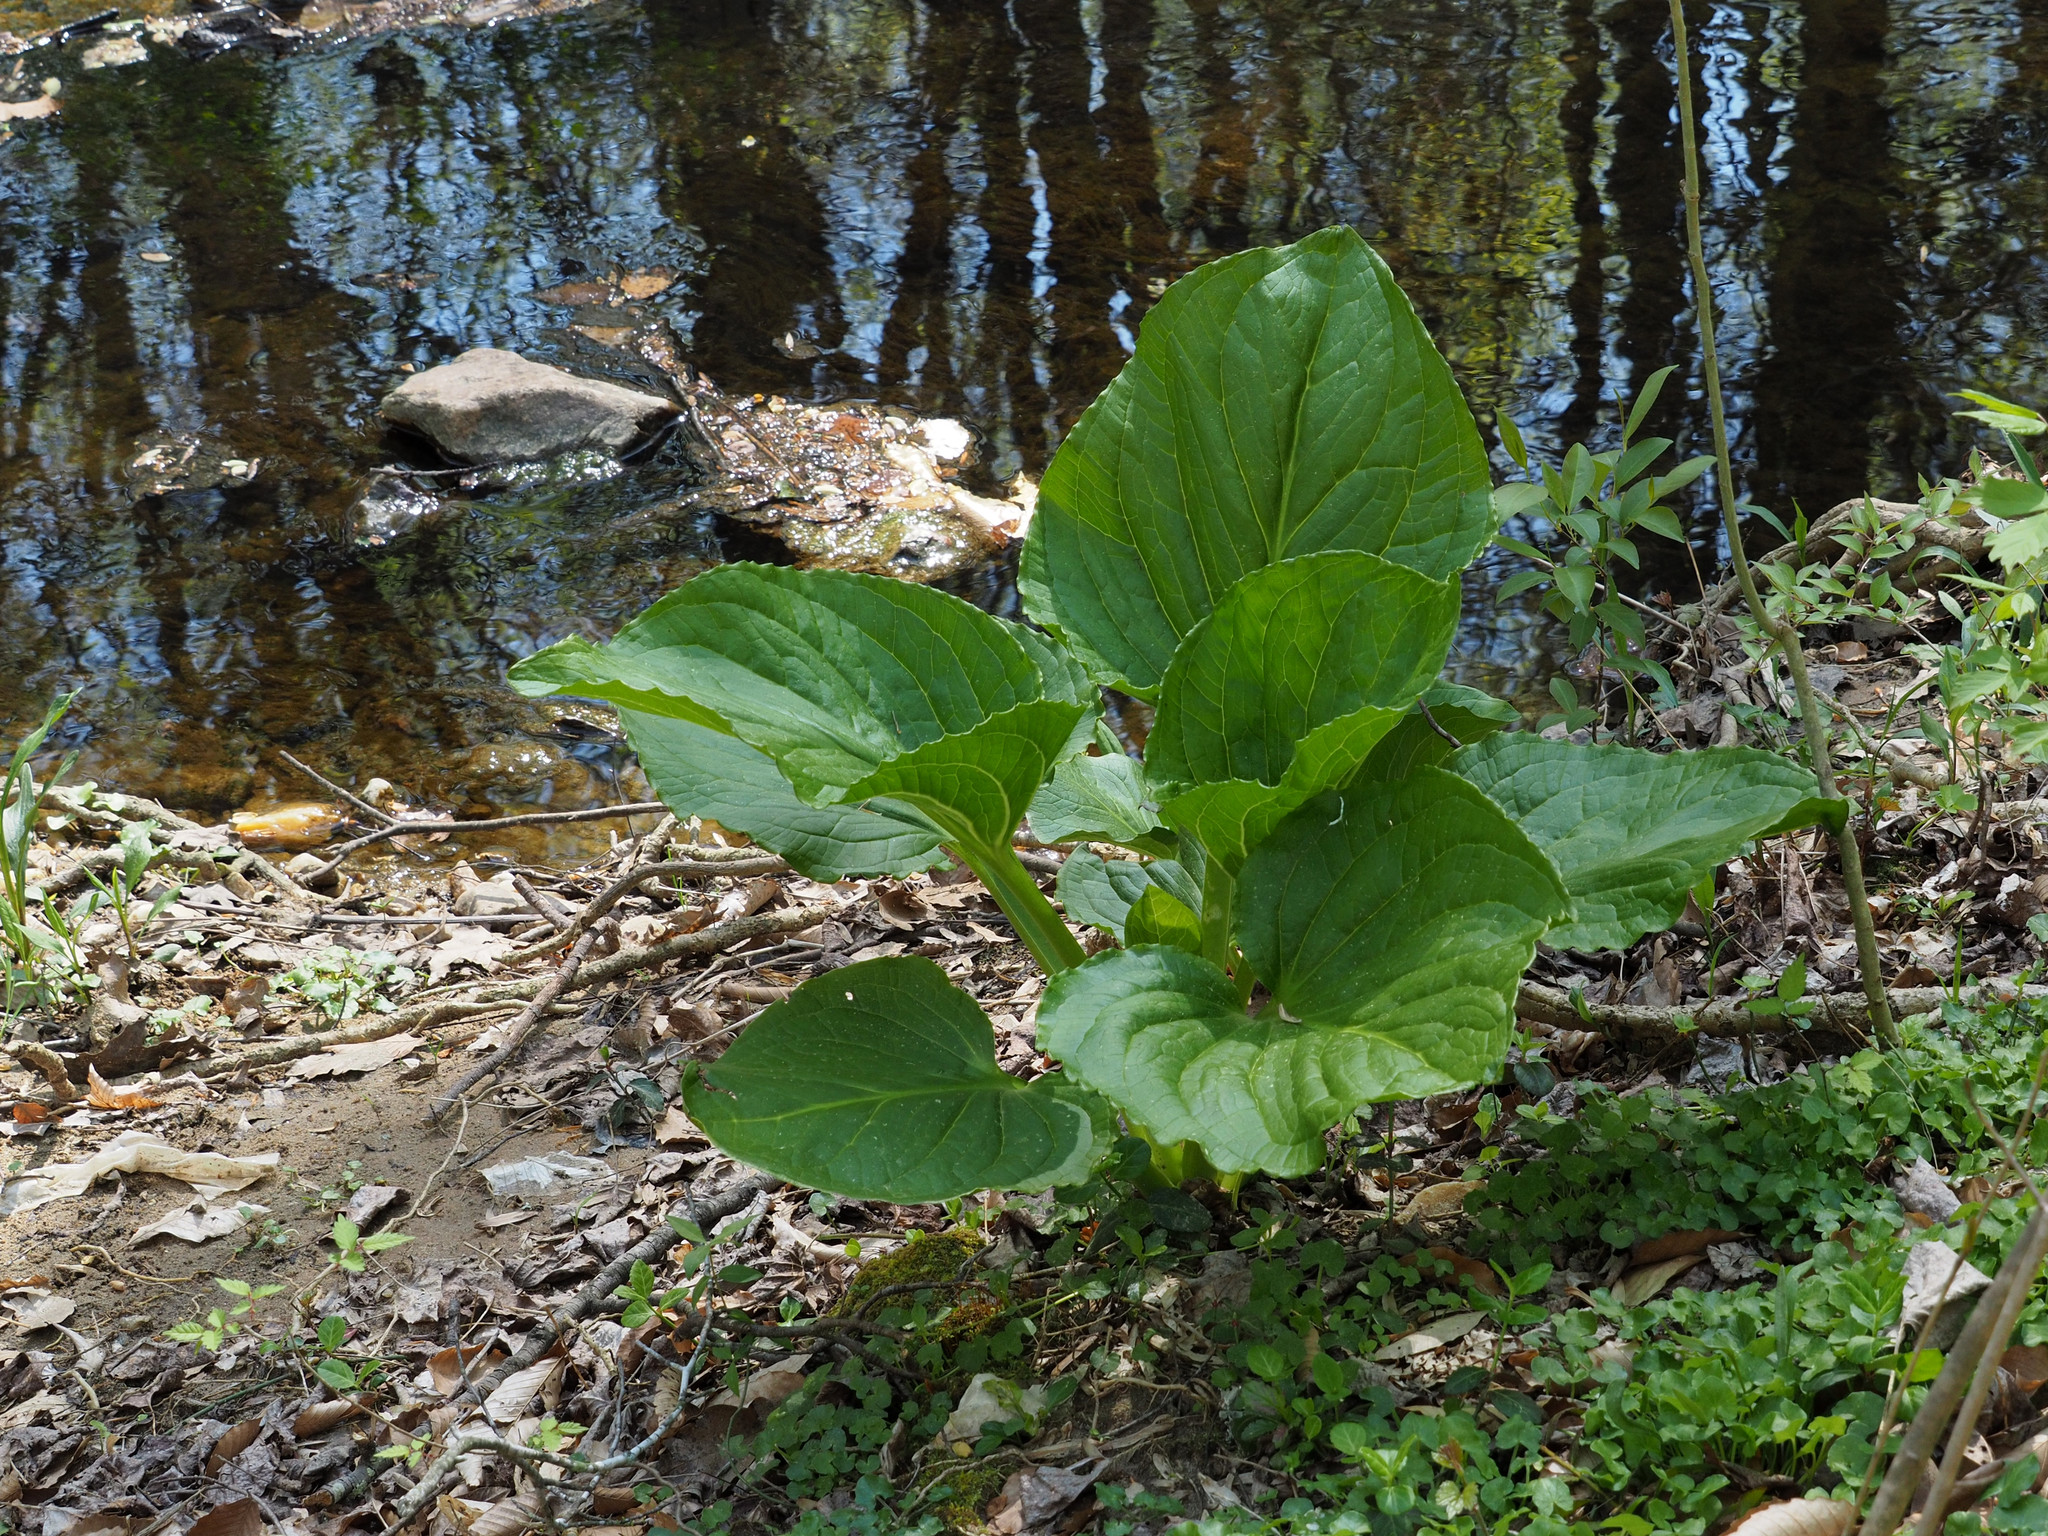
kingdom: Plantae
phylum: Tracheophyta
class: Liliopsida
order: Alismatales
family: Araceae
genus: Symplocarpus
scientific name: Symplocarpus foetidus
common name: Eastern skunk cabbage
